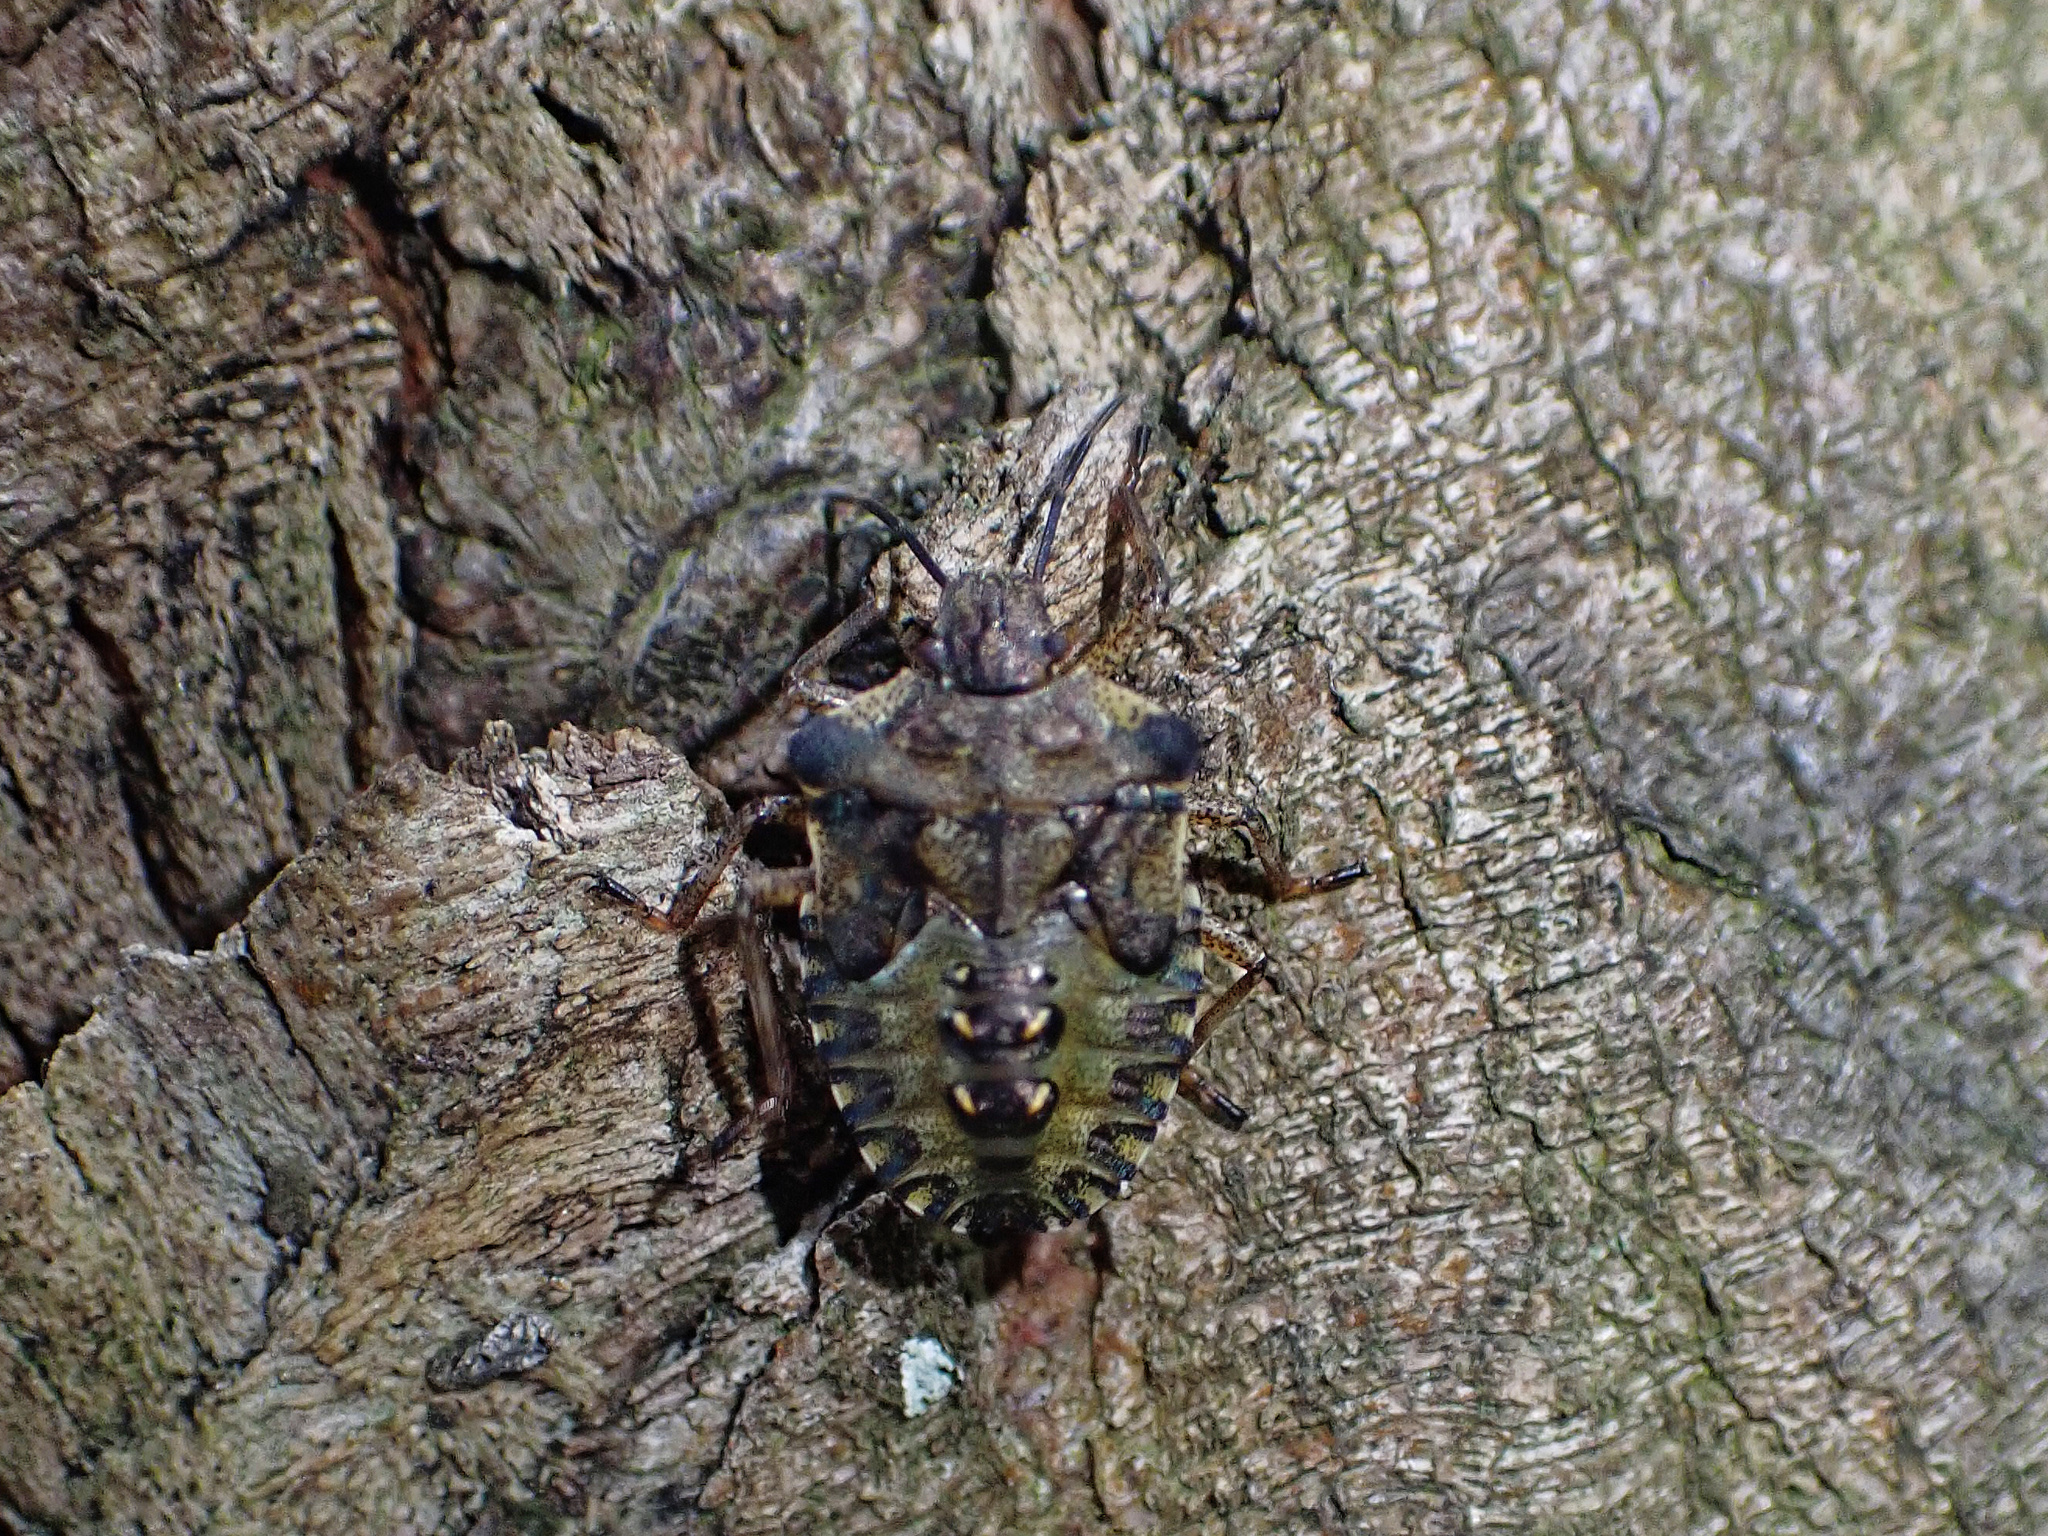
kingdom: Animalia
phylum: Arthropoda
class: Insecta
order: Hemiptera
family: Pentatomidae
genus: Pentatoma
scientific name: Pentatoma rufipes
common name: Forest bug
